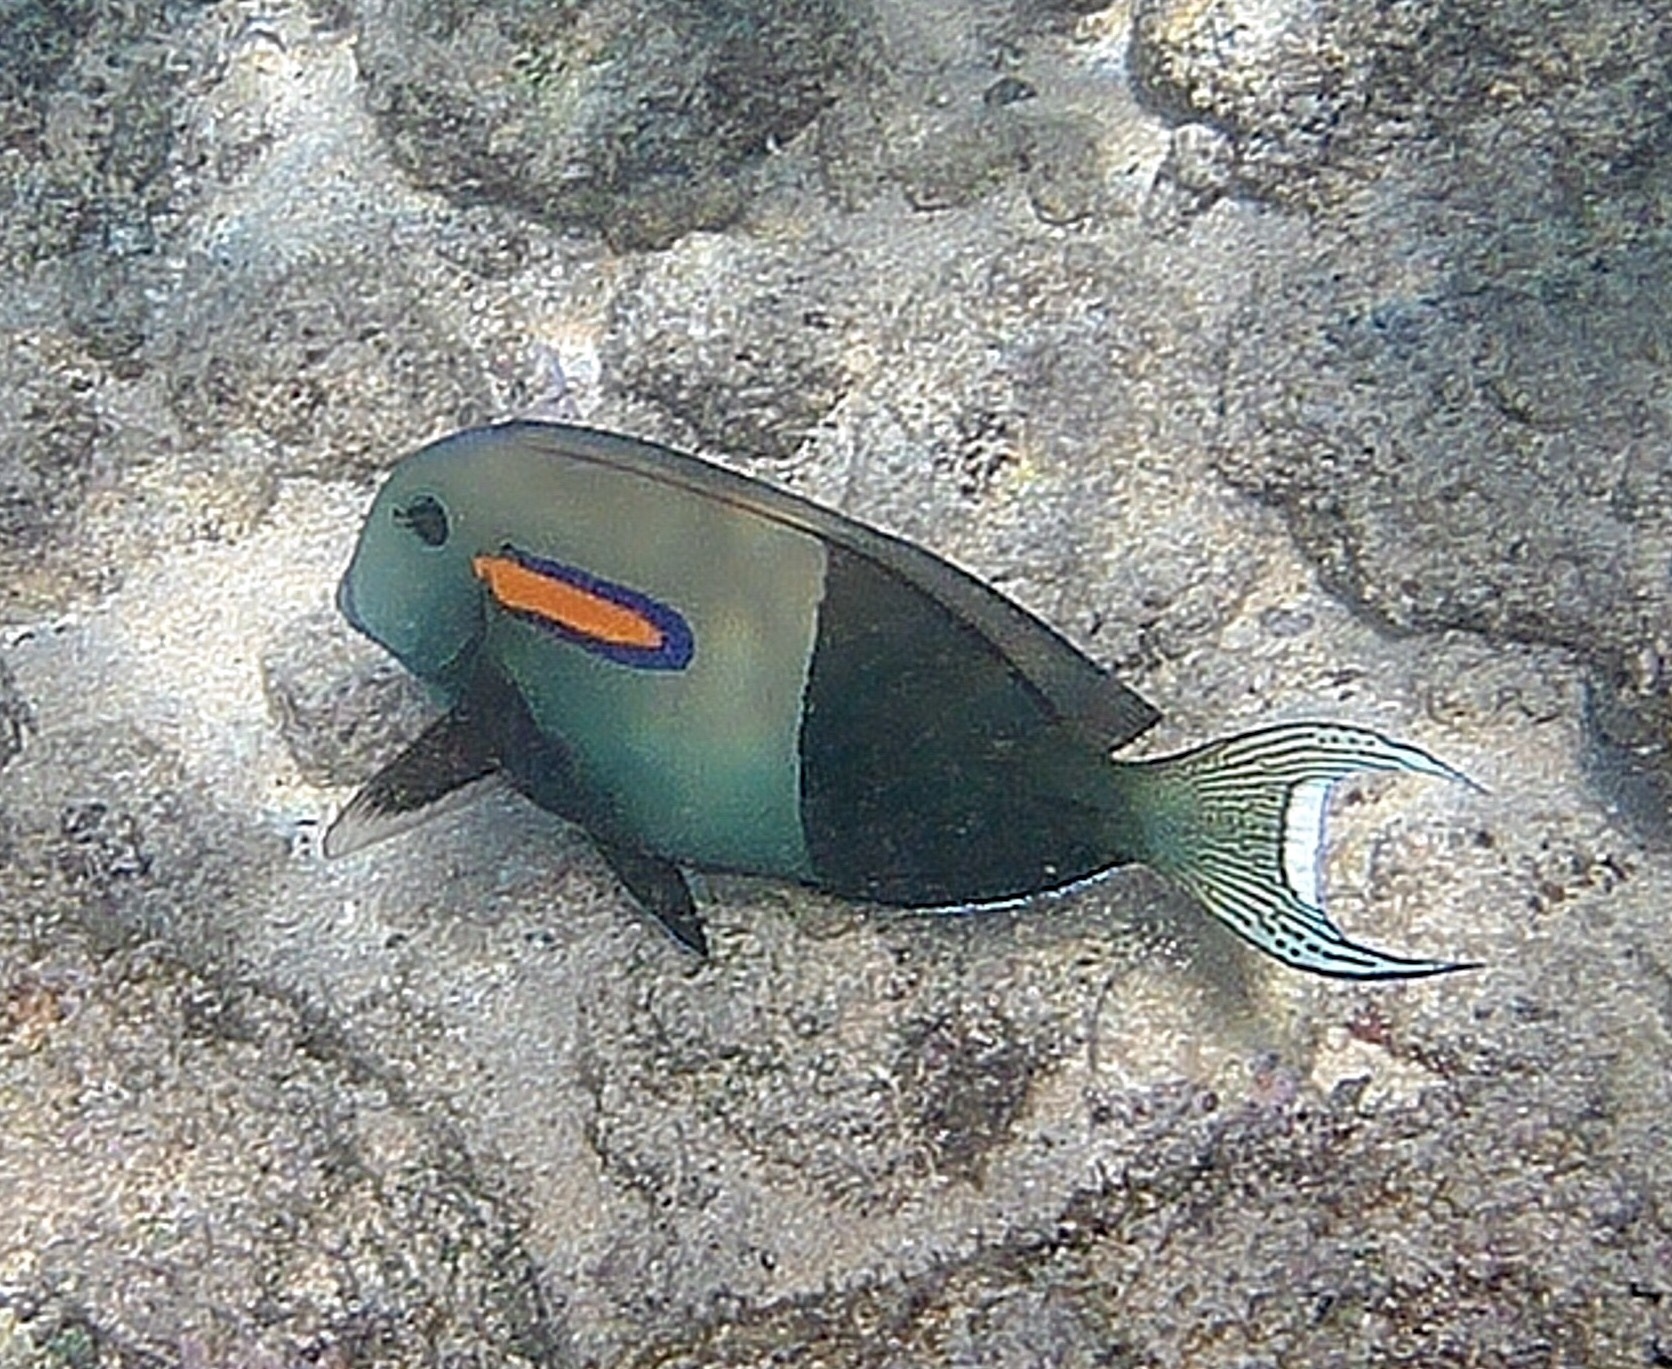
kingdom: Animalia
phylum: Chordata
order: Perciformes
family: Acanthuridae
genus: Acanthurus
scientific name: Acanthurus olivaceus
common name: Gendarme fish
